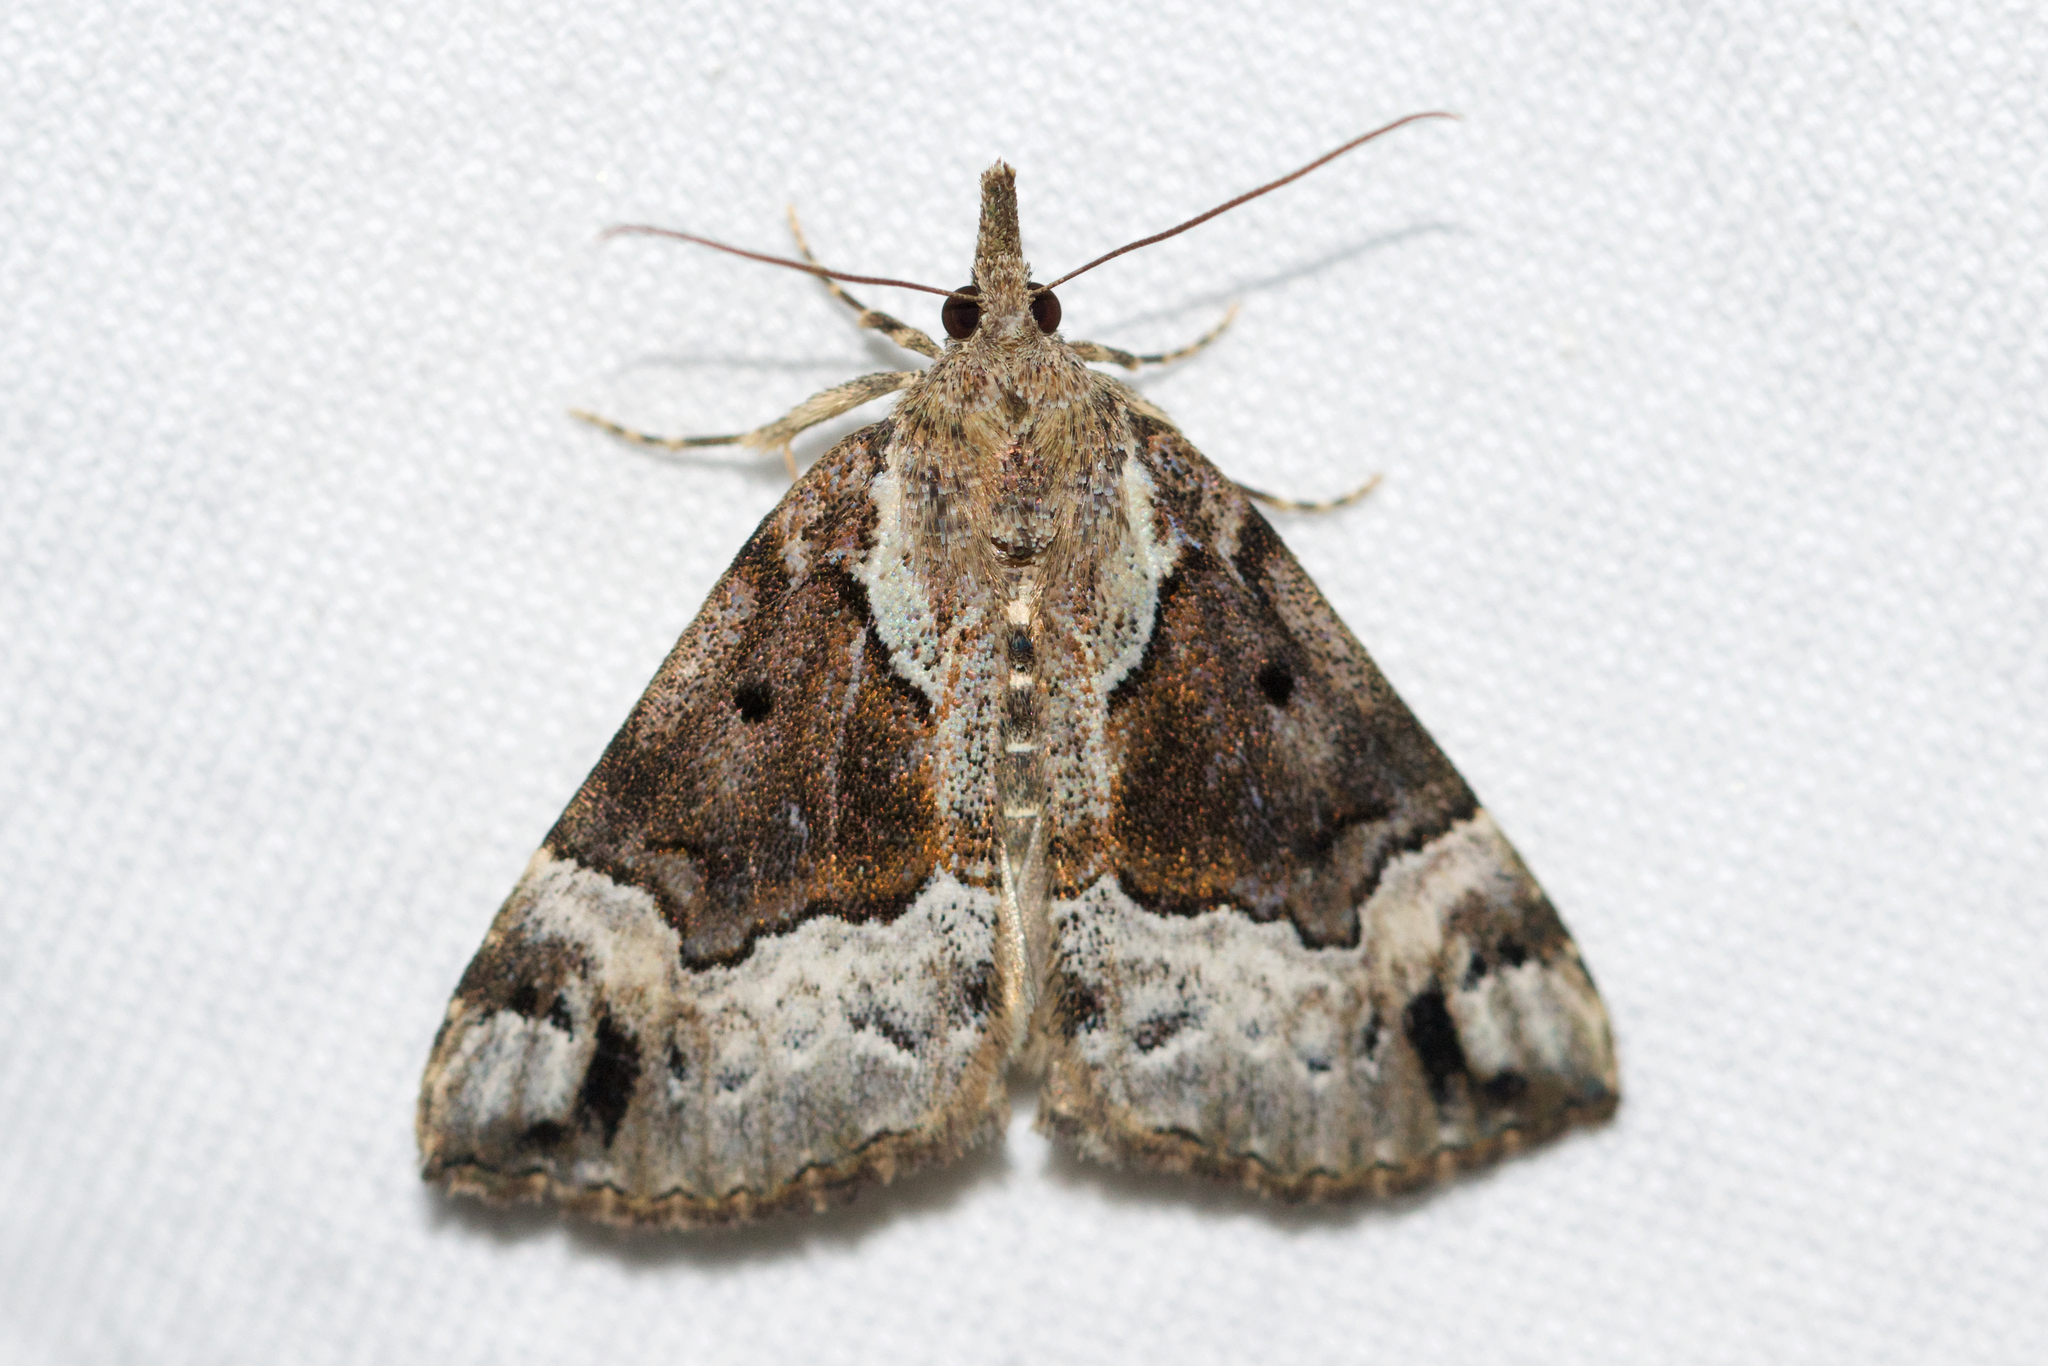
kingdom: Animalia
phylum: Arthropoda
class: Insecta
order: Lepidoptera
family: Erebidae
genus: Hypena
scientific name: Hypena palparia
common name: Mottled bomolocha moth
